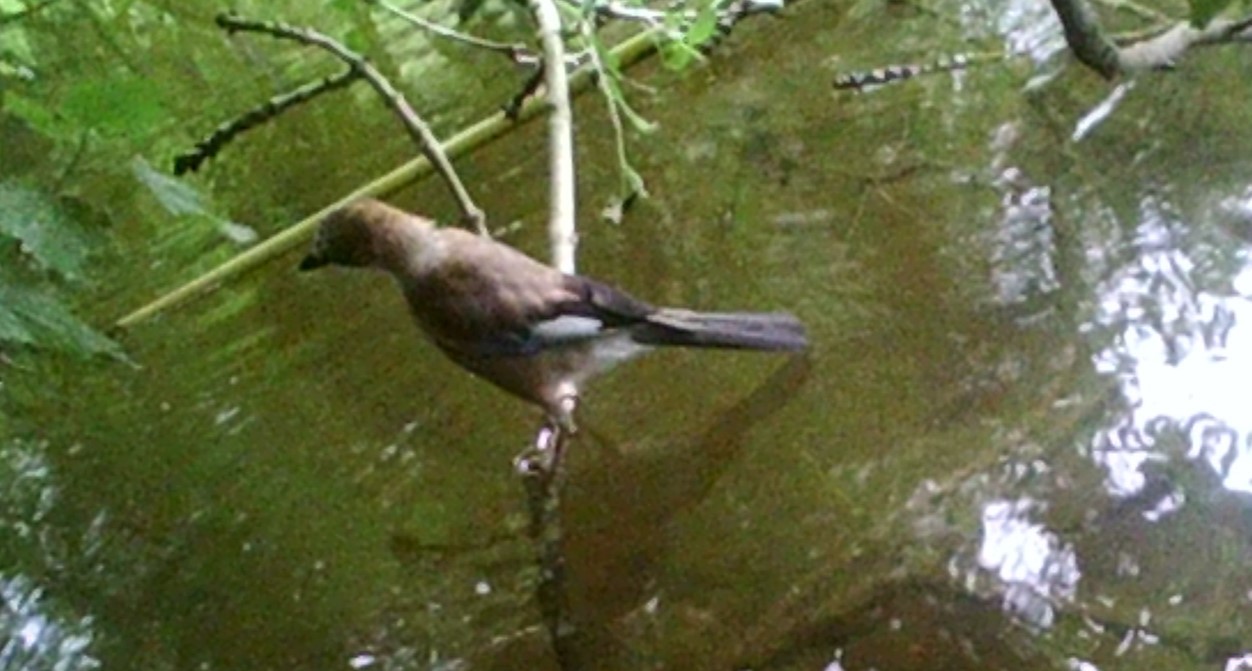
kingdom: Animalia
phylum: Chordata
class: Aves
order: Passeriformes
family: Corvidae
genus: Garrulus
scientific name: Garrulus glandarius
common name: Eurasian jay
